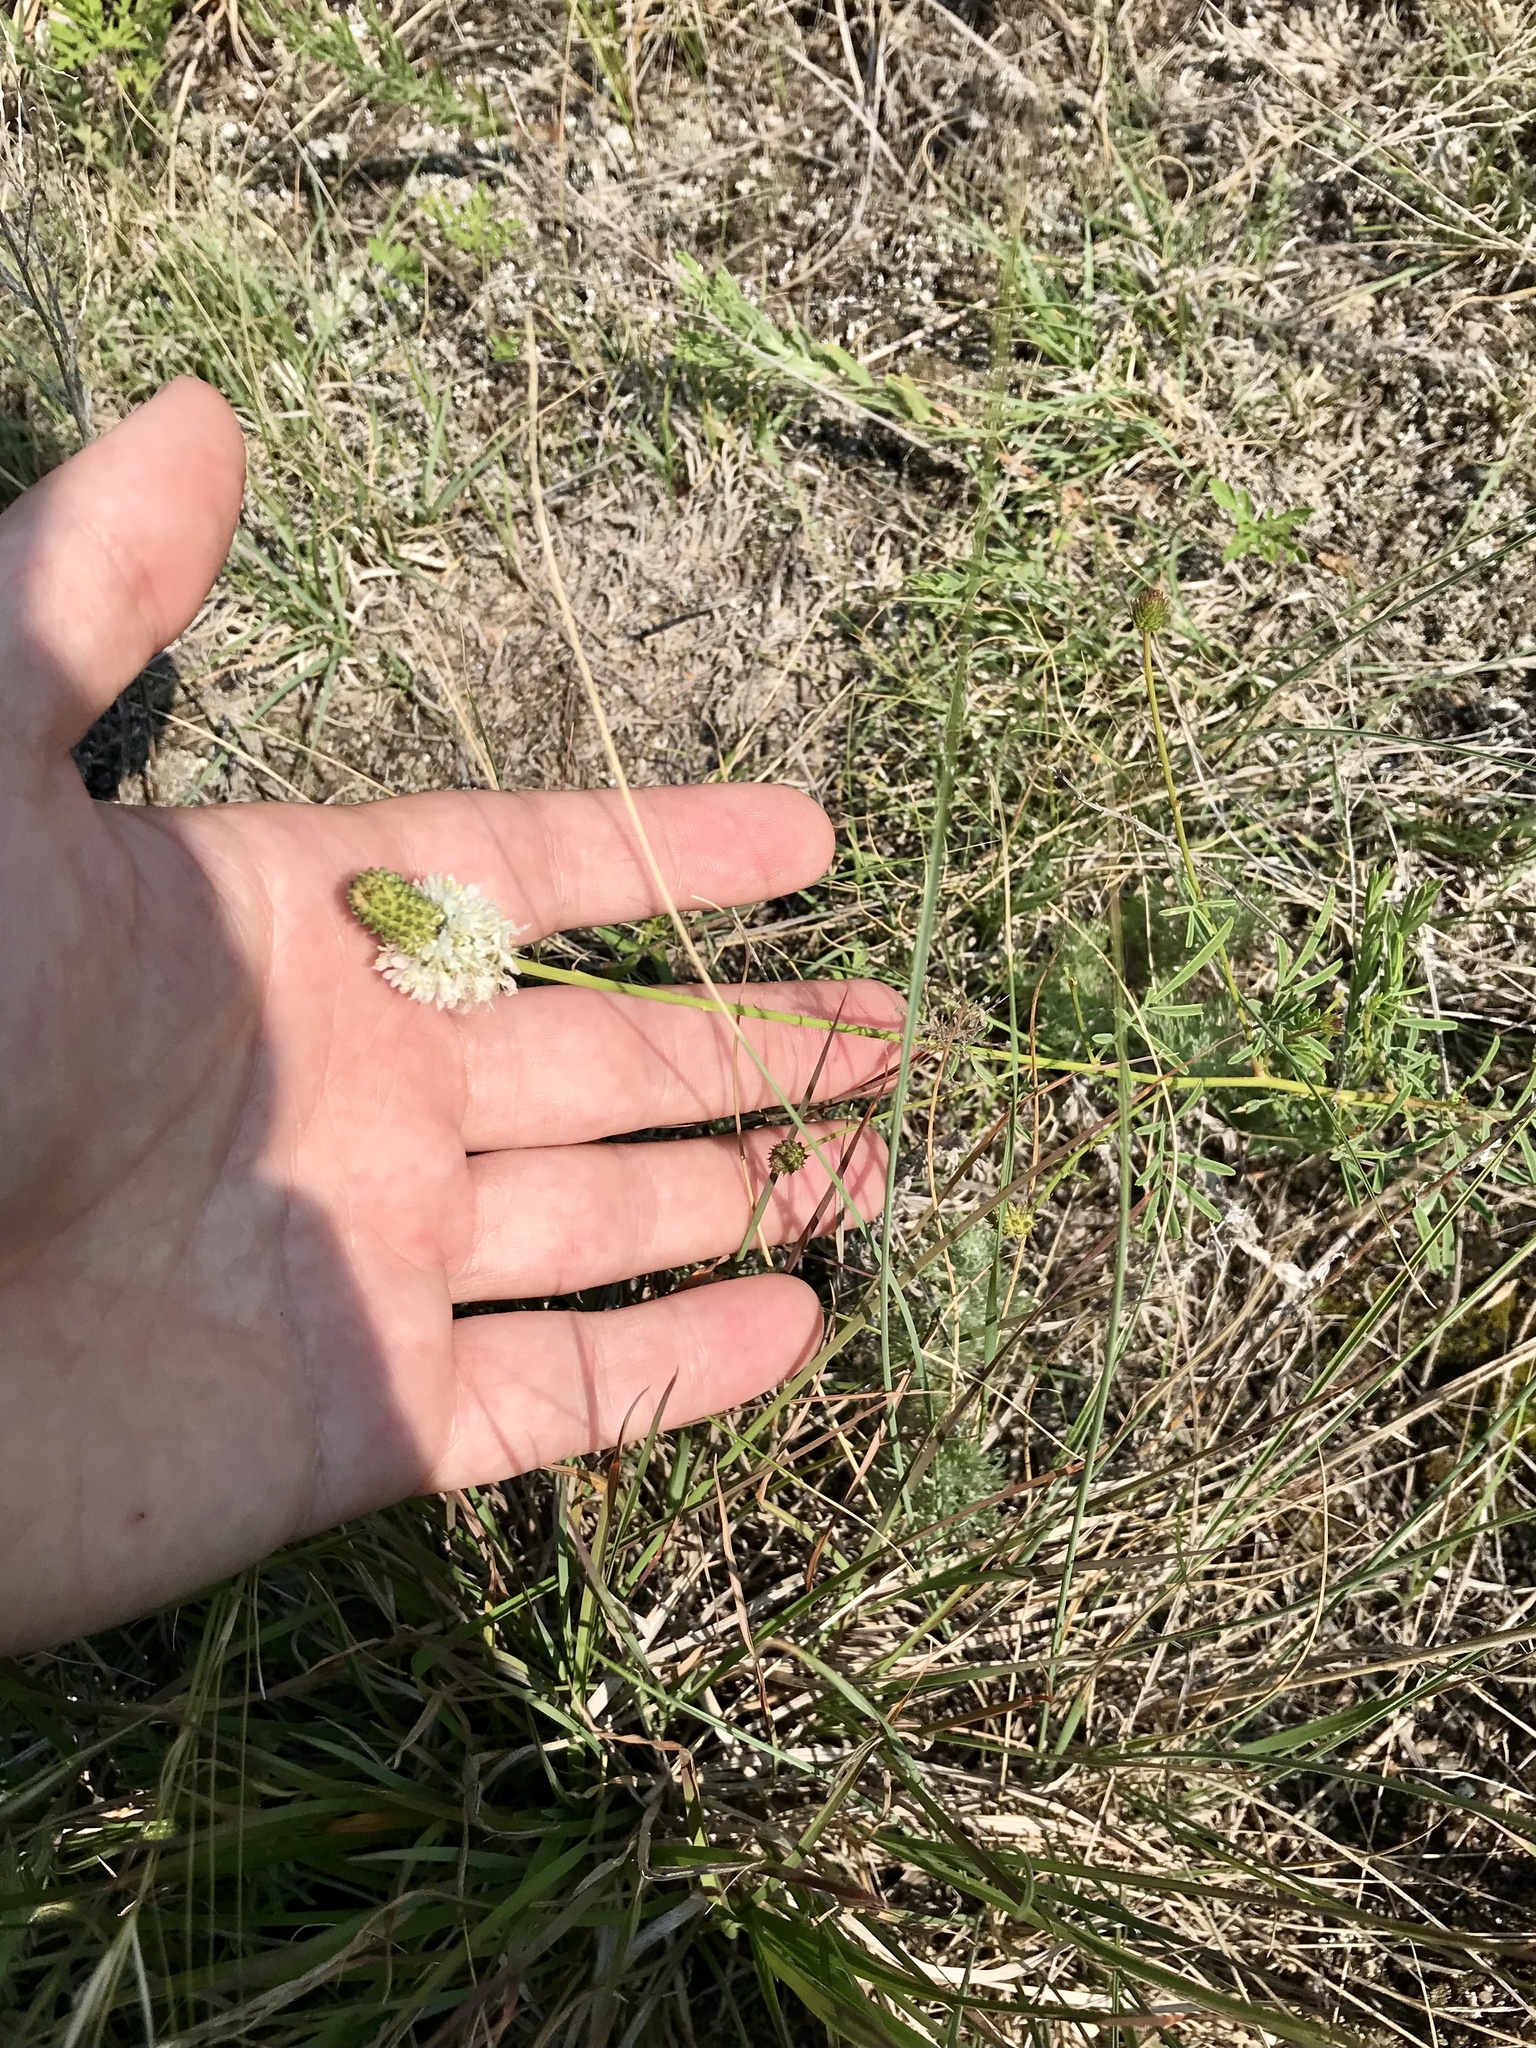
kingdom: Plantae
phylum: Tracheophyta
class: Magnoliopsida
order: Fabales
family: Fabaceae
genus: Dalea
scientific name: Dalea candida
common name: White prairie-clover
